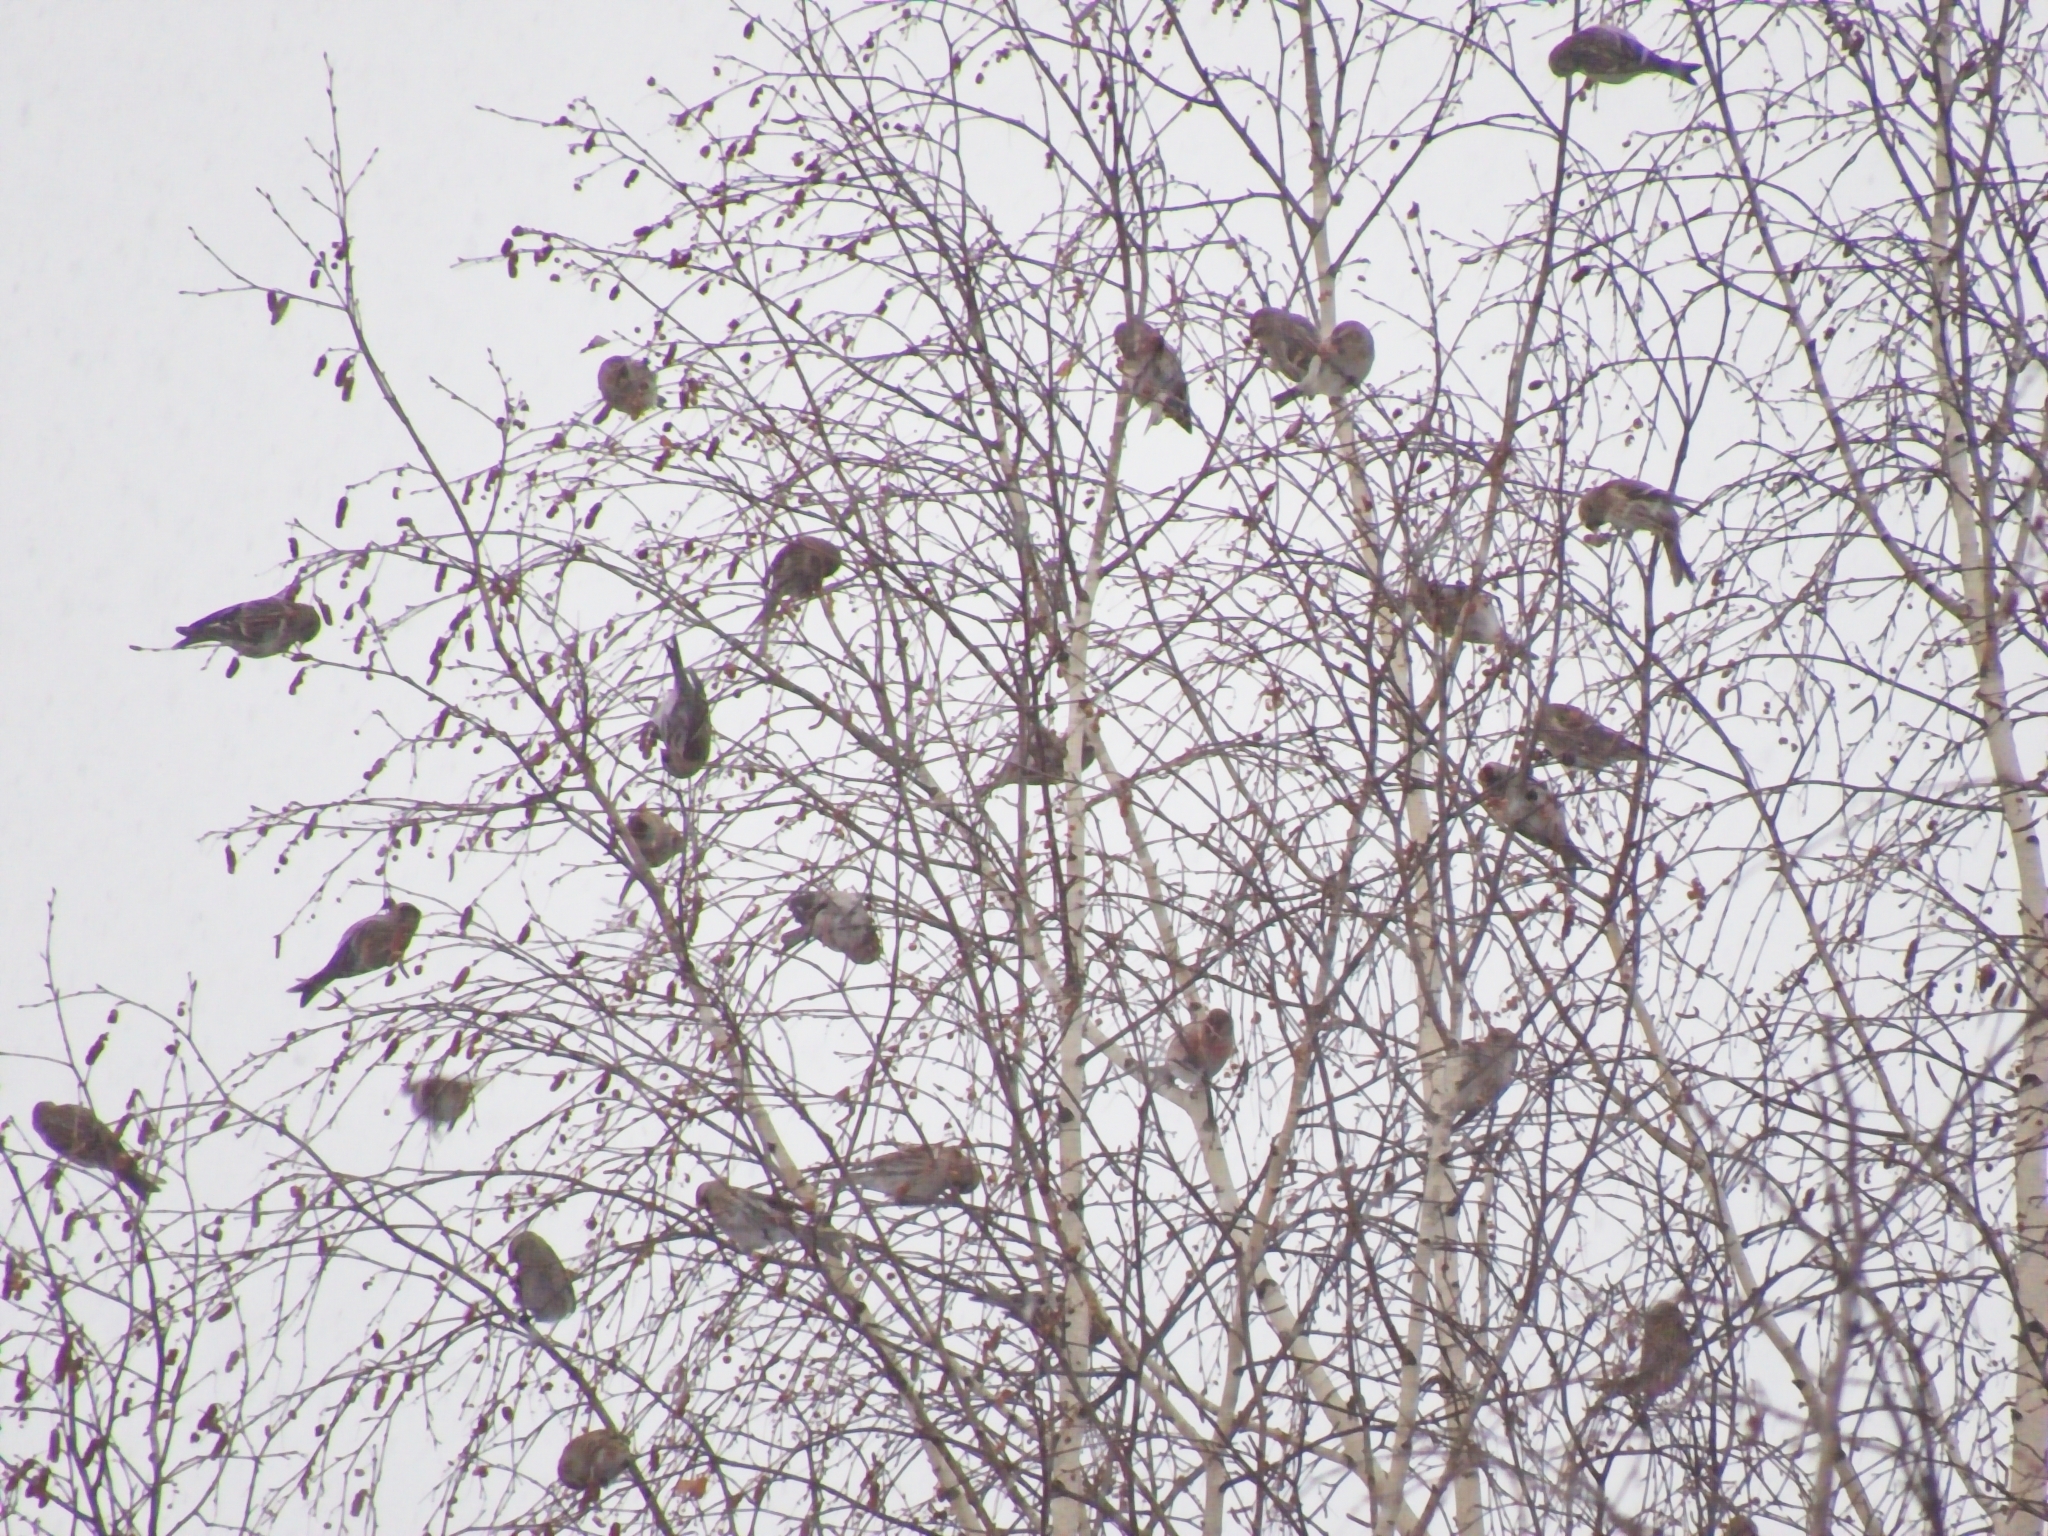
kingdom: Animalia
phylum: Chordata
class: Aves
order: Passeriformes
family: Fringillidae
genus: Acanthis
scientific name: Acanthis flammea
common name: Common redpoll
